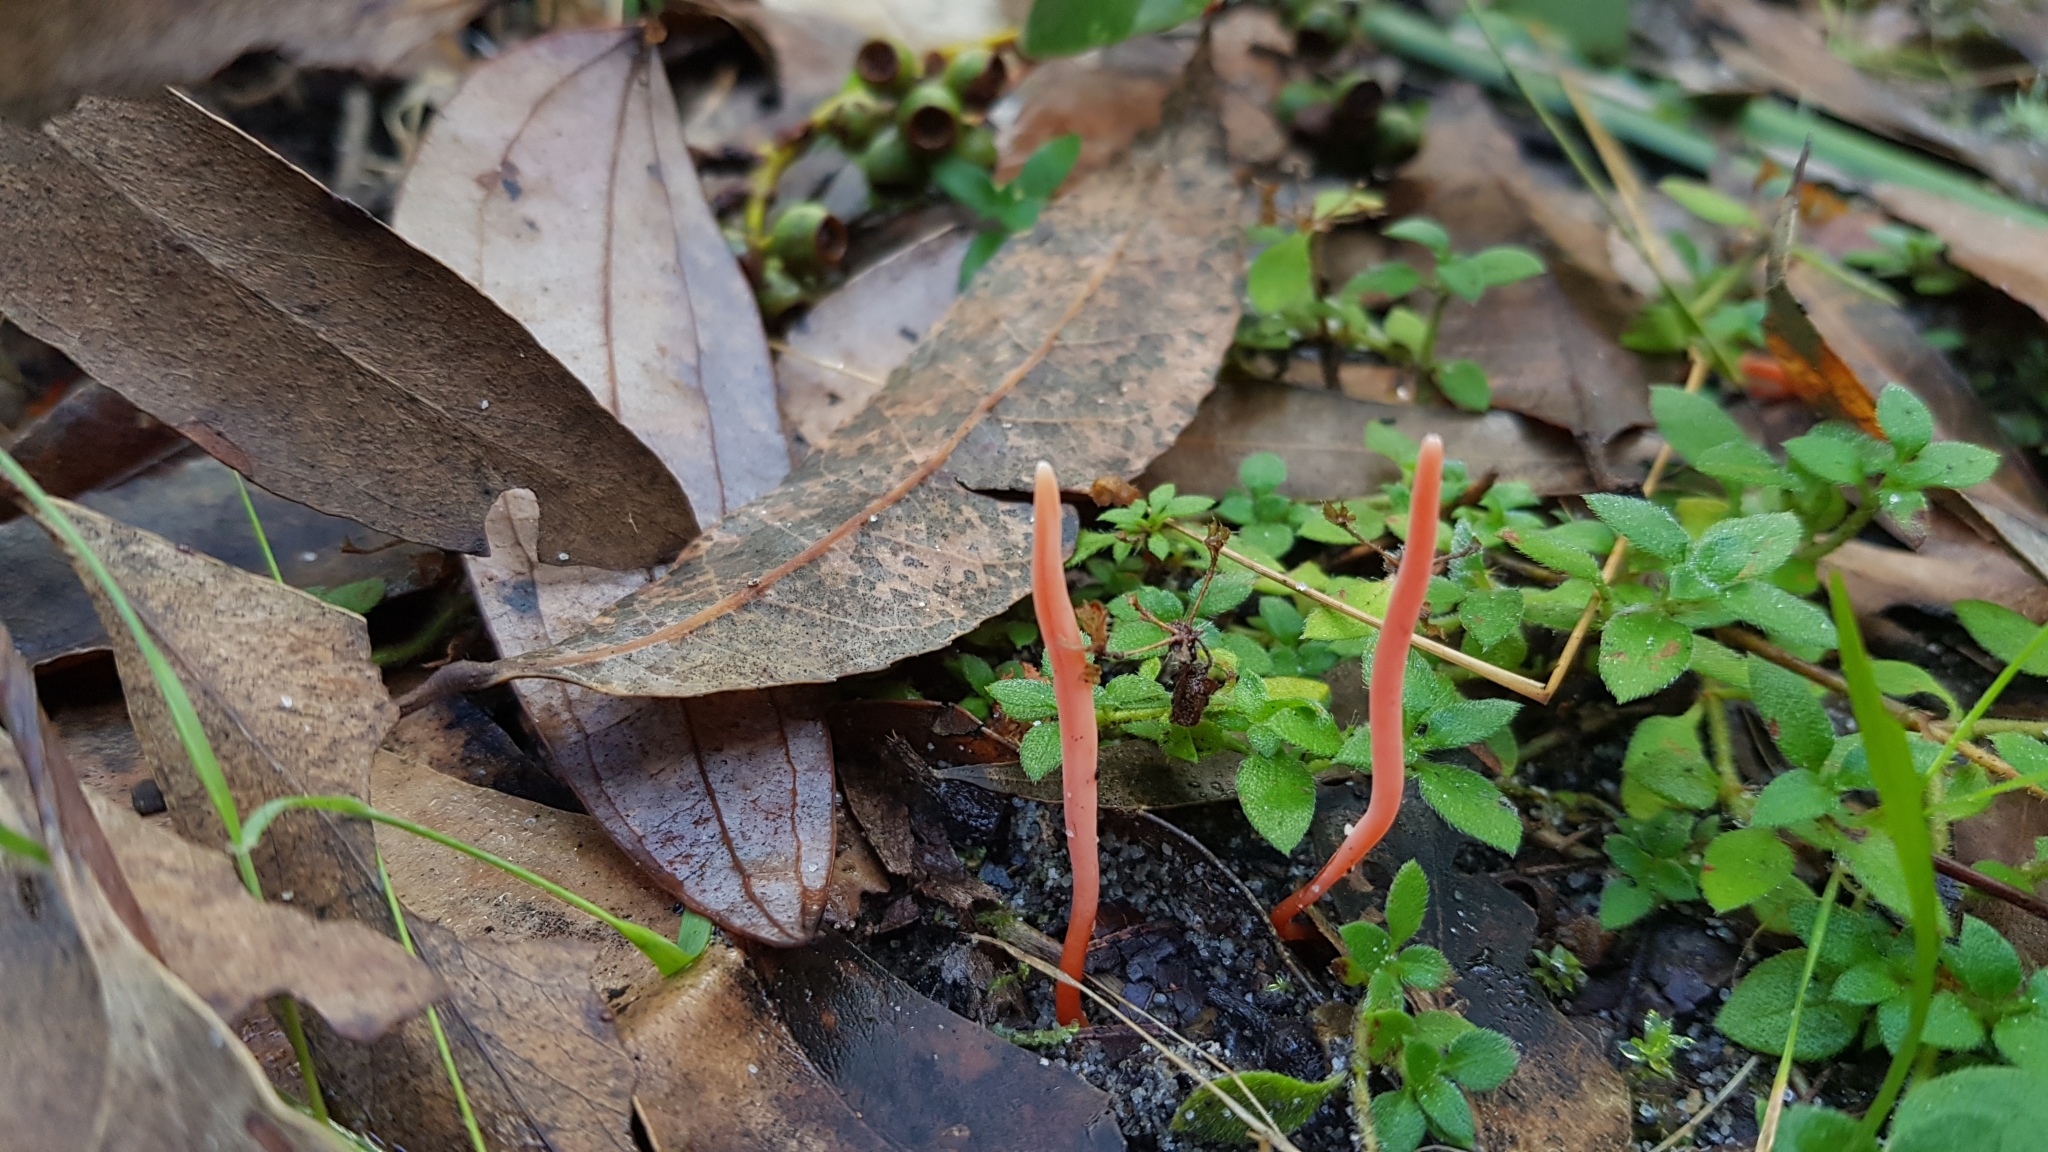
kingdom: Fungi
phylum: Basidiomycota
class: Agaricomycetes
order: Agaricales
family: Clavariaceae
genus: Clavulinopsis
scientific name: Clavulinopsis corallinorosacea
